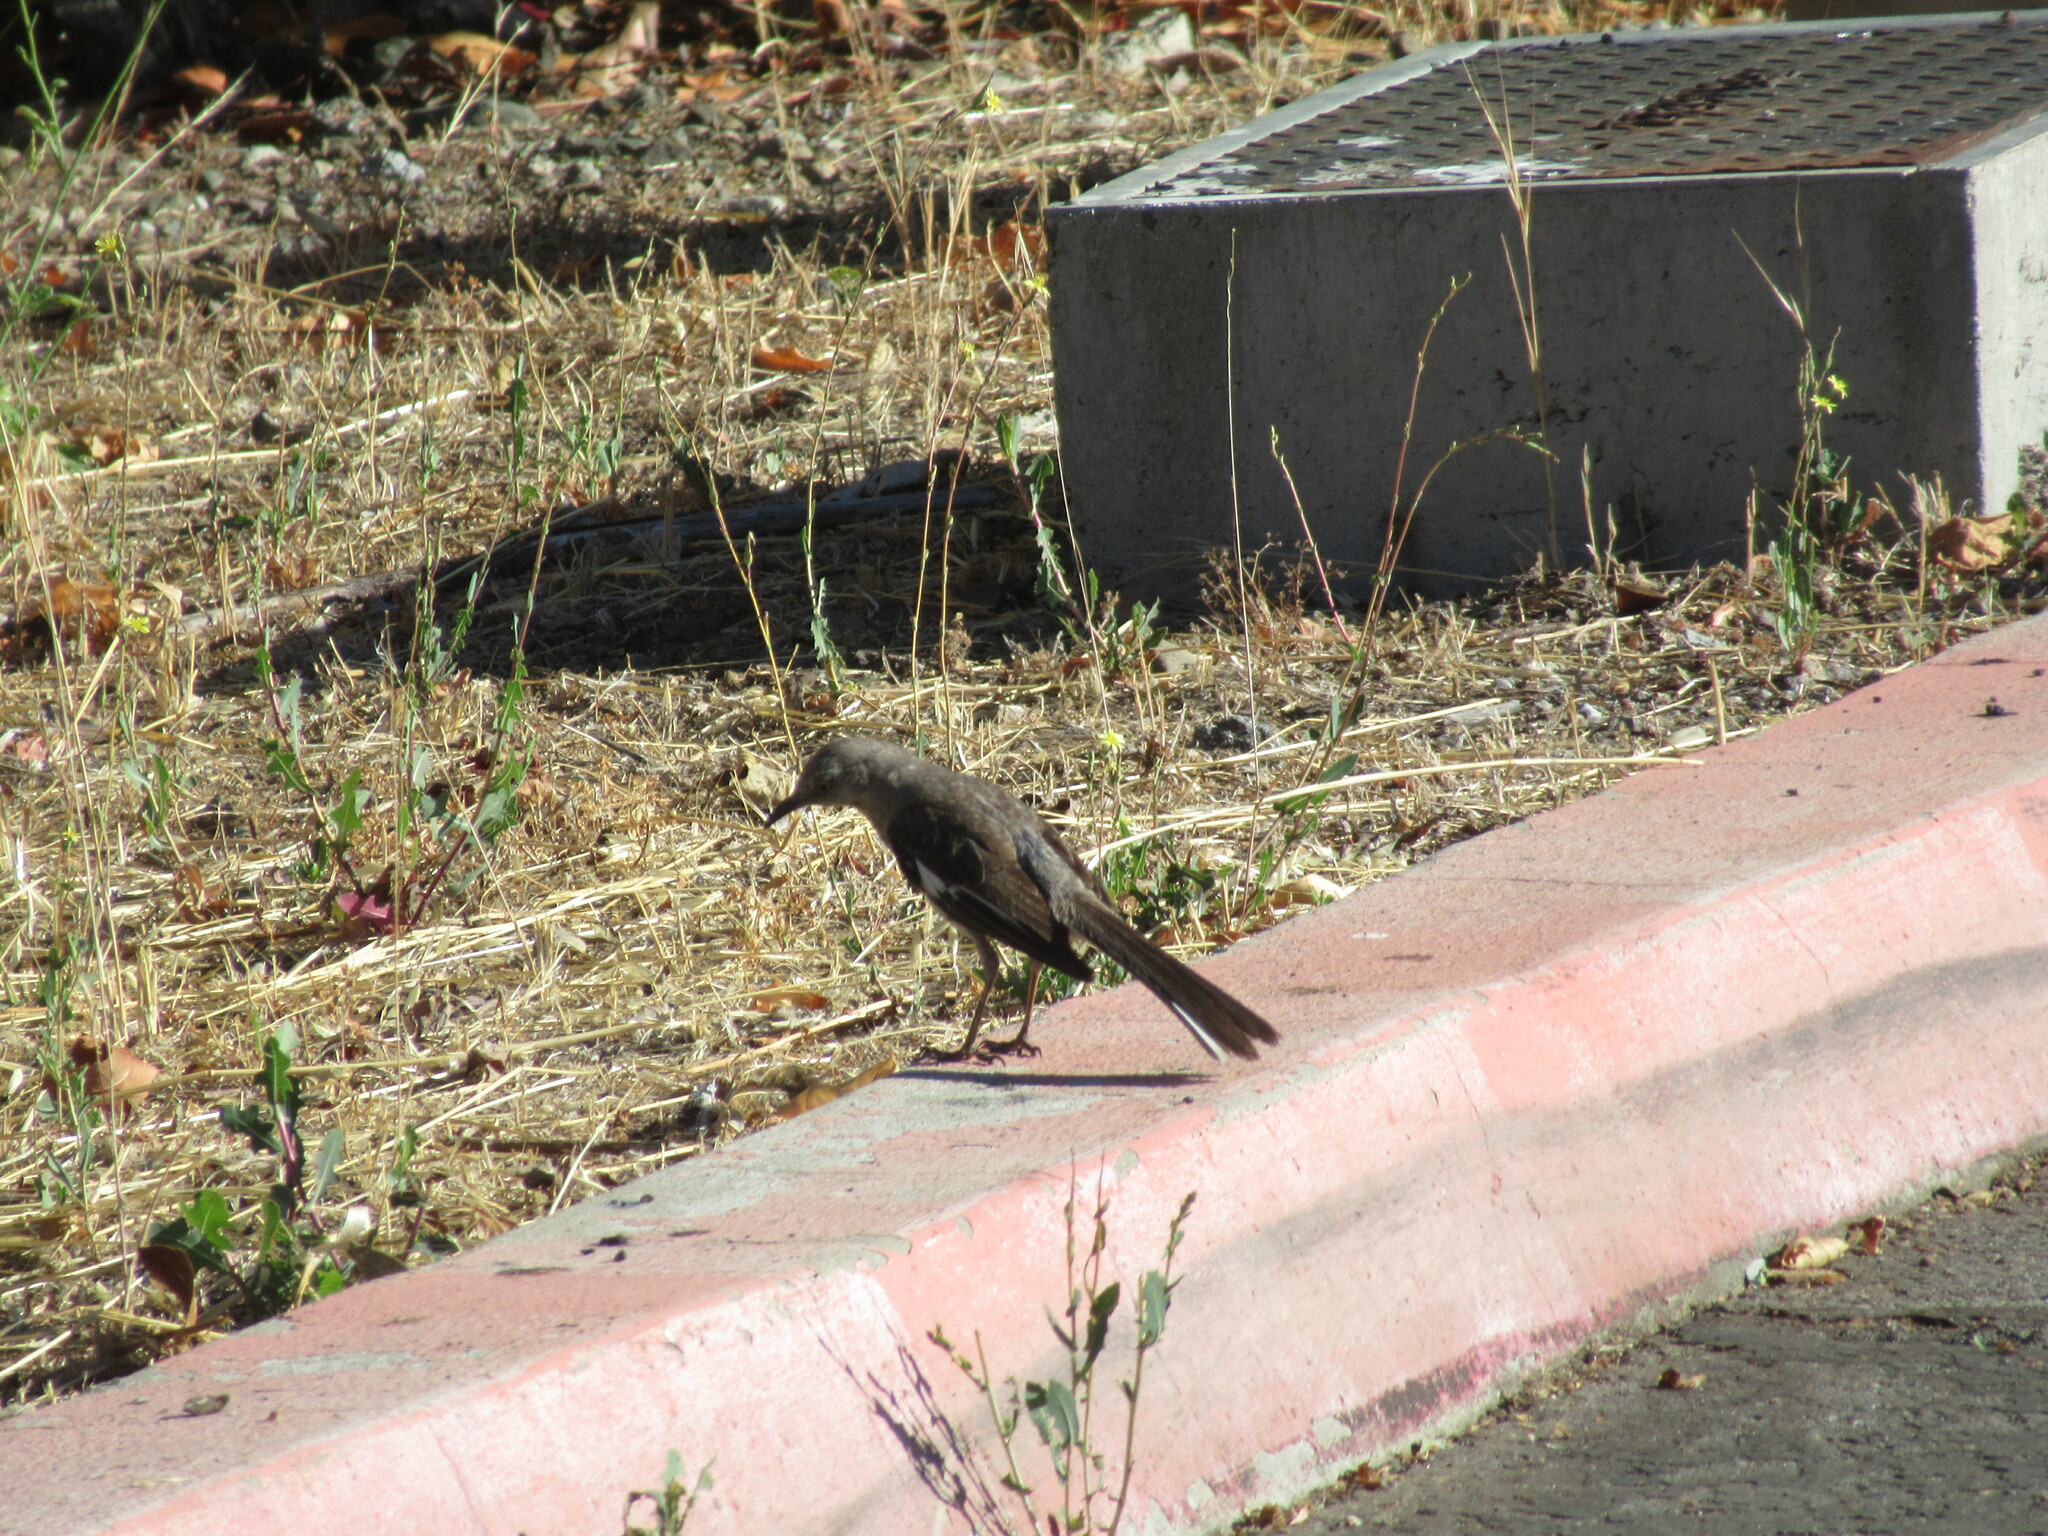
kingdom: Animalia
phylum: Chordata
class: Aves
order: Passeriformes
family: Mimidae
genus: Mimus
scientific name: Mimus polyglottos
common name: Northern mockingbird
